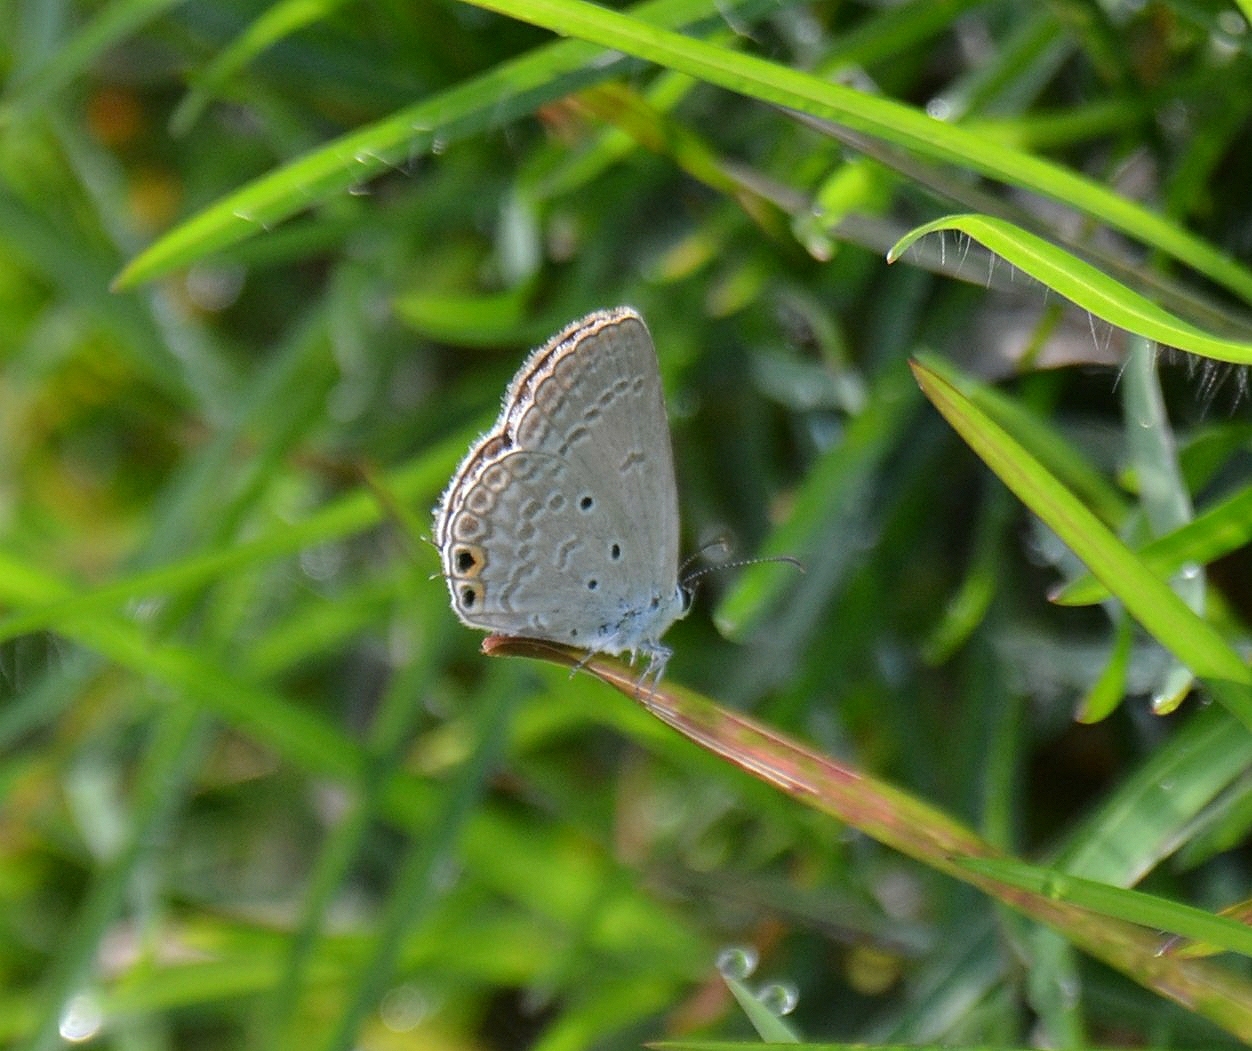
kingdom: Animalia
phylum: Arthropoda
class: Insecta
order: Lepidoptera
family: Lycaenidae
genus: Euchrysops
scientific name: Euchrysops cnejus
